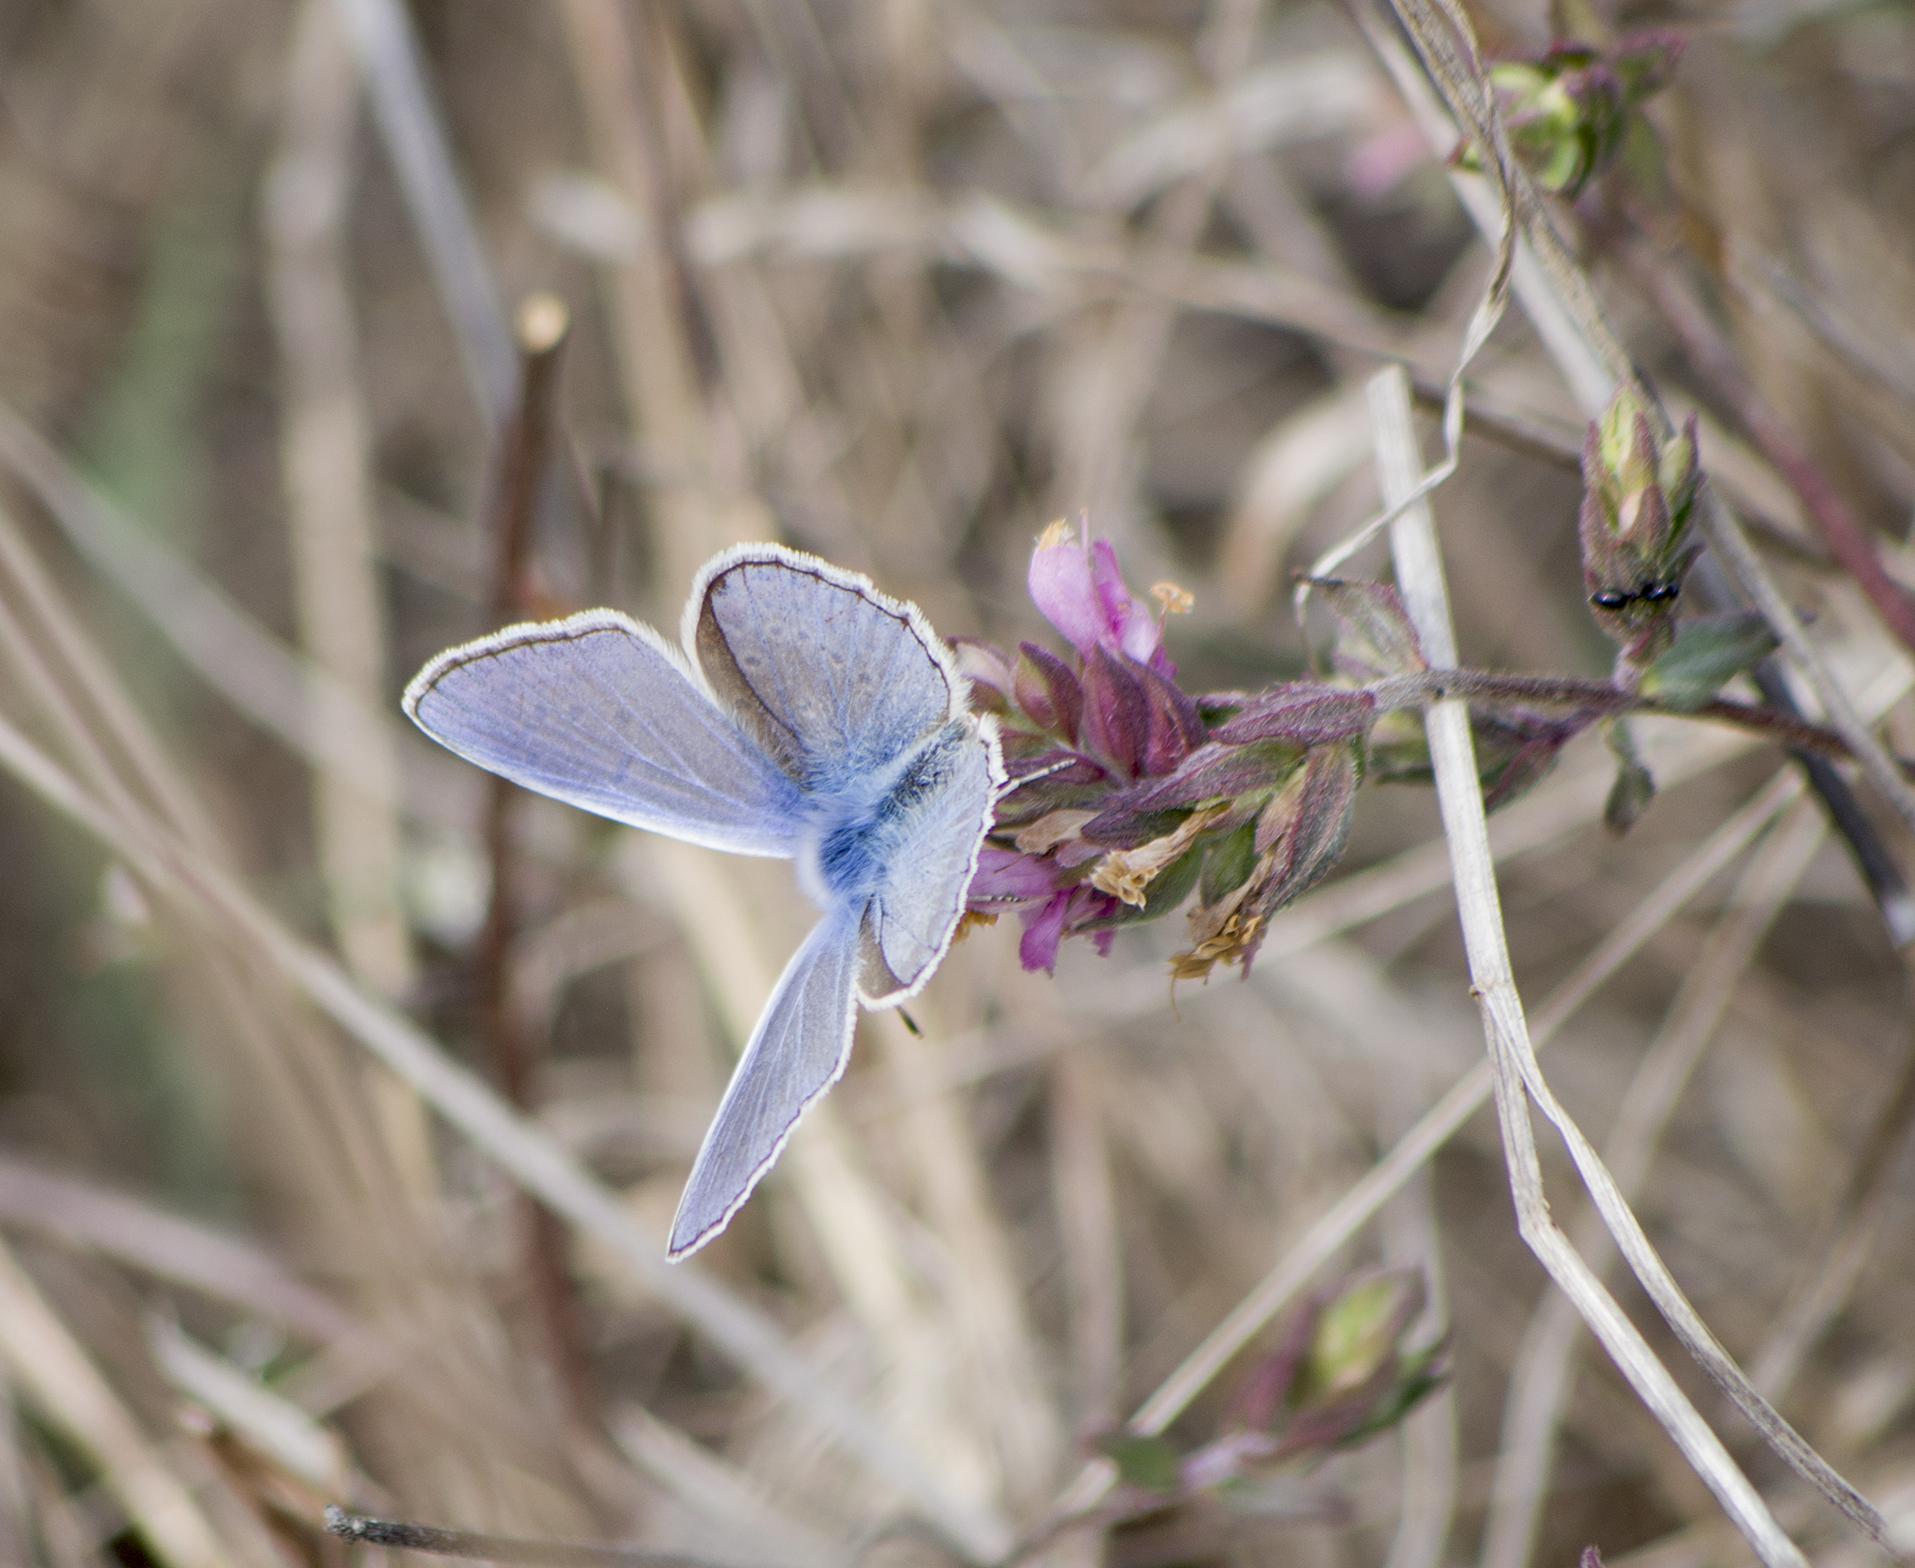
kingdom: Animalia
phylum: Arthropoda
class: Insecta
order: Lepidoptera
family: Lycaenidae
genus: Polyommatus
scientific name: Polyommatus icarus
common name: Common blue
